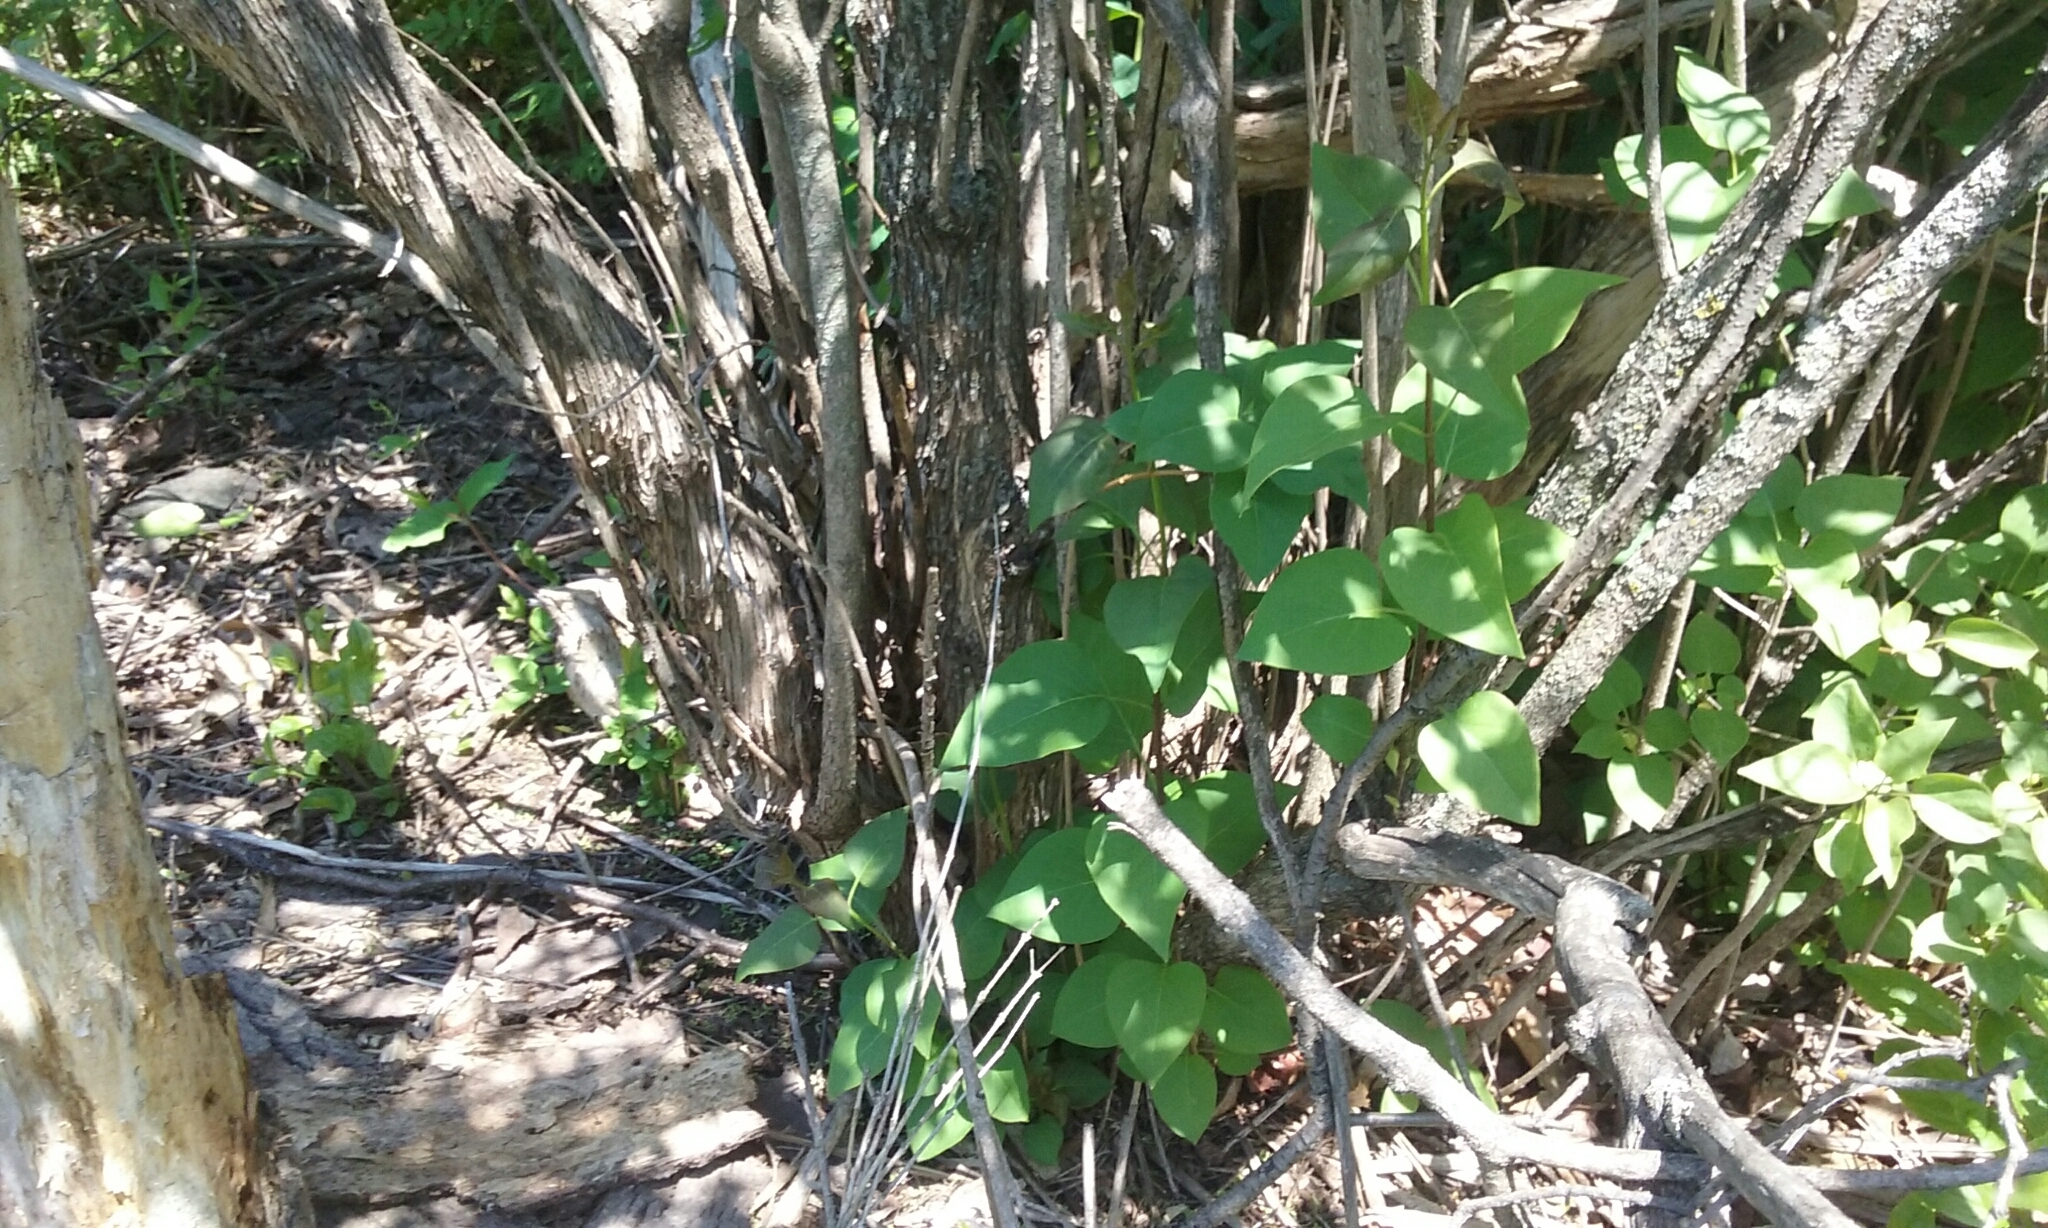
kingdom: Plantae
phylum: Tracheophyta
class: Magnoliopsida
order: Lamiales
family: Oleaceae
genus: Syringa
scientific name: Syringa vulgaris
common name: Common lilac
